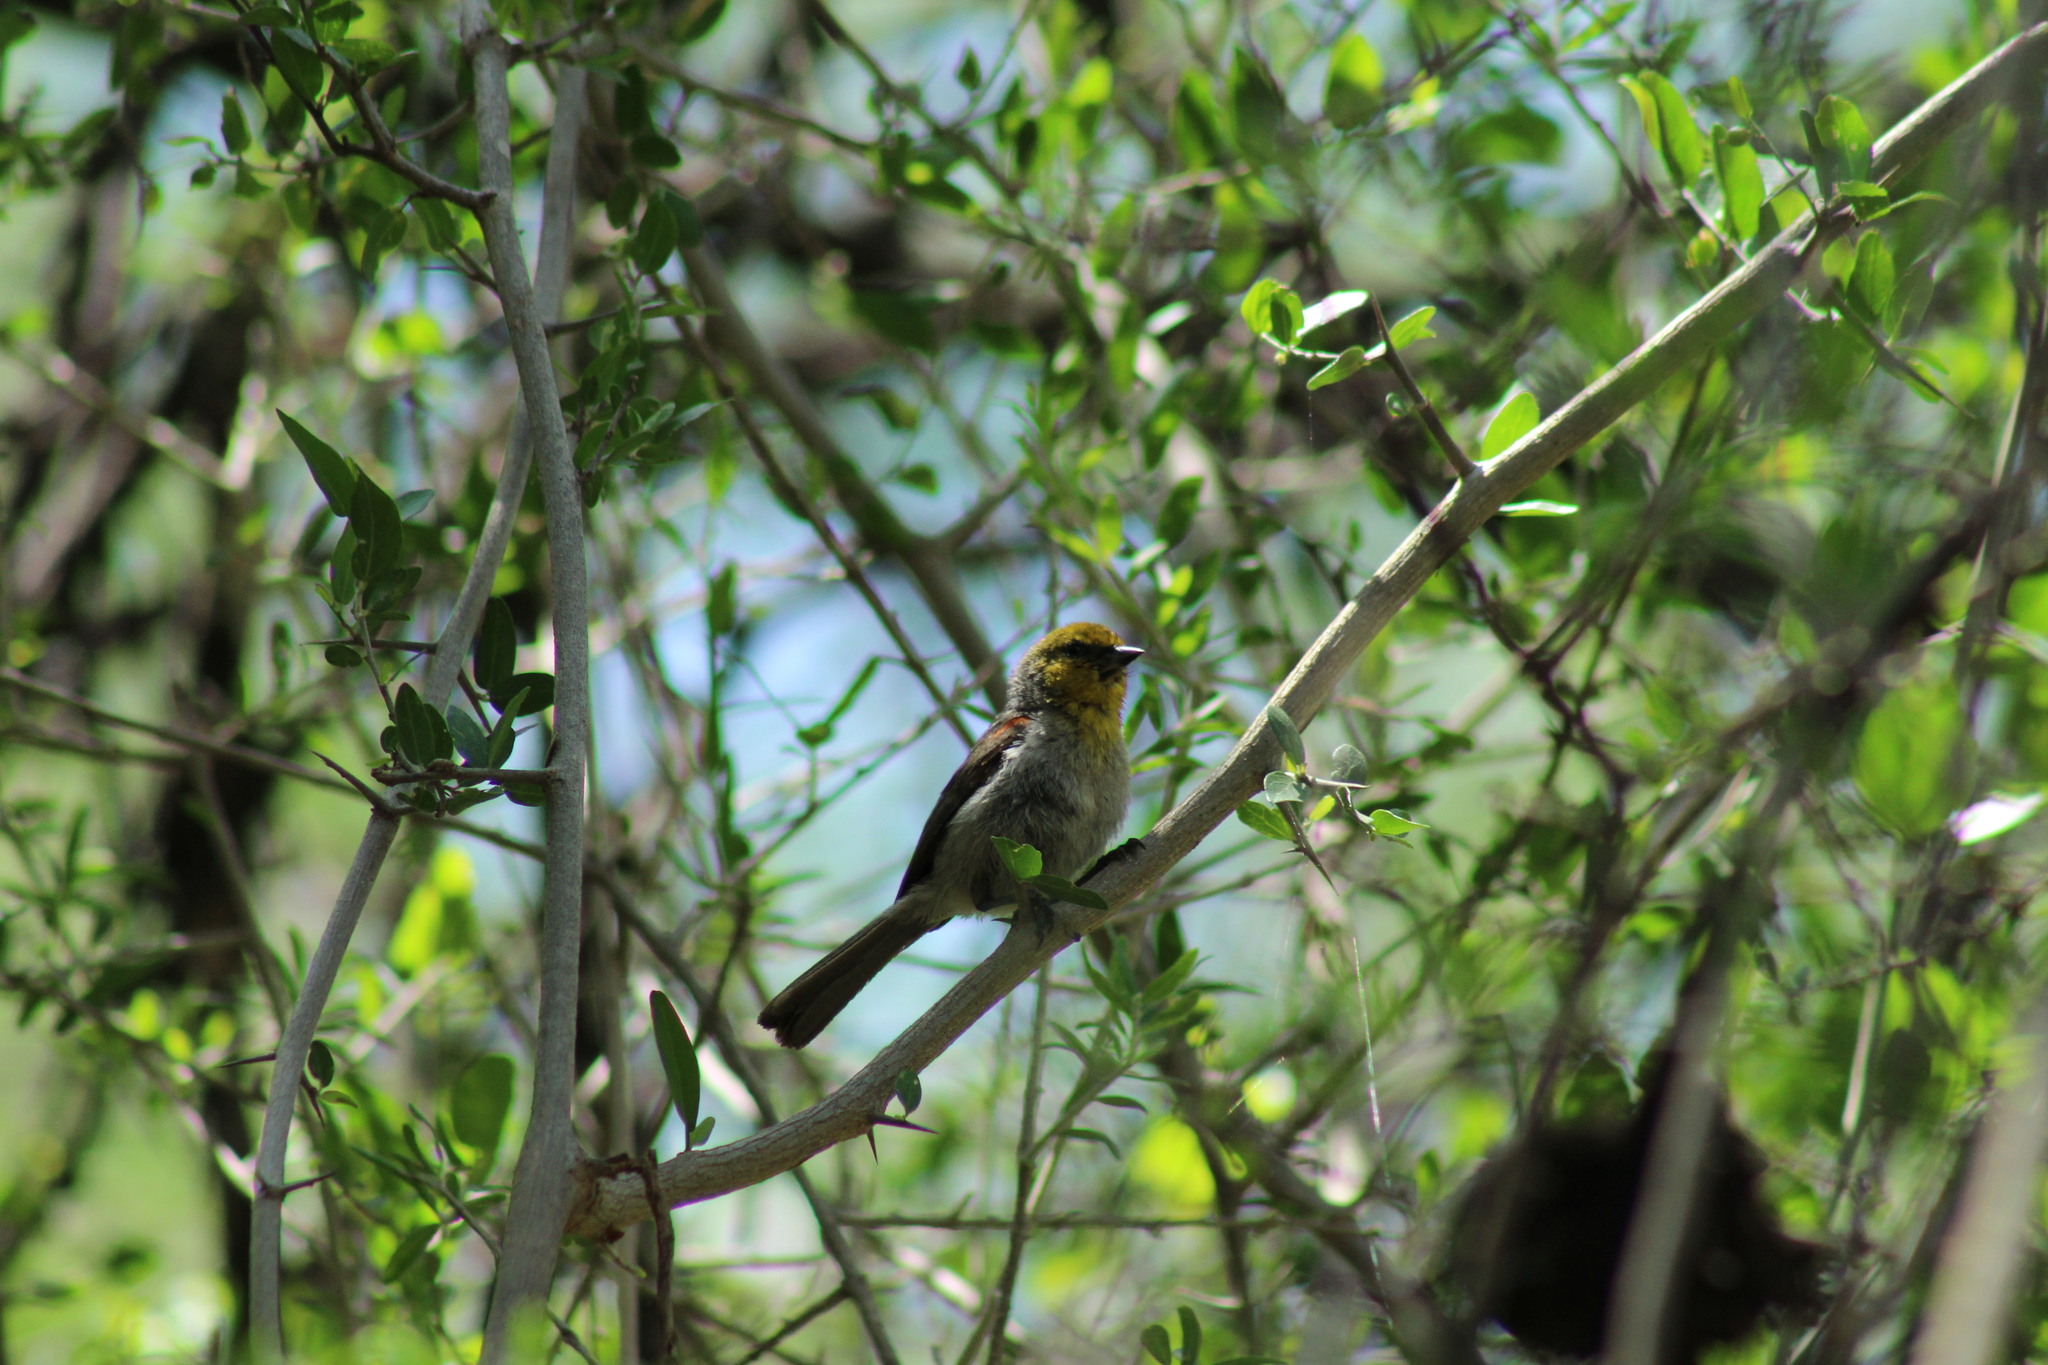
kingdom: Animalia
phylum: Chordata
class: Aves
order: Passeriformes
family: Remizidae
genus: Auriparus
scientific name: Auriparus flaviceps
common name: Verdin
